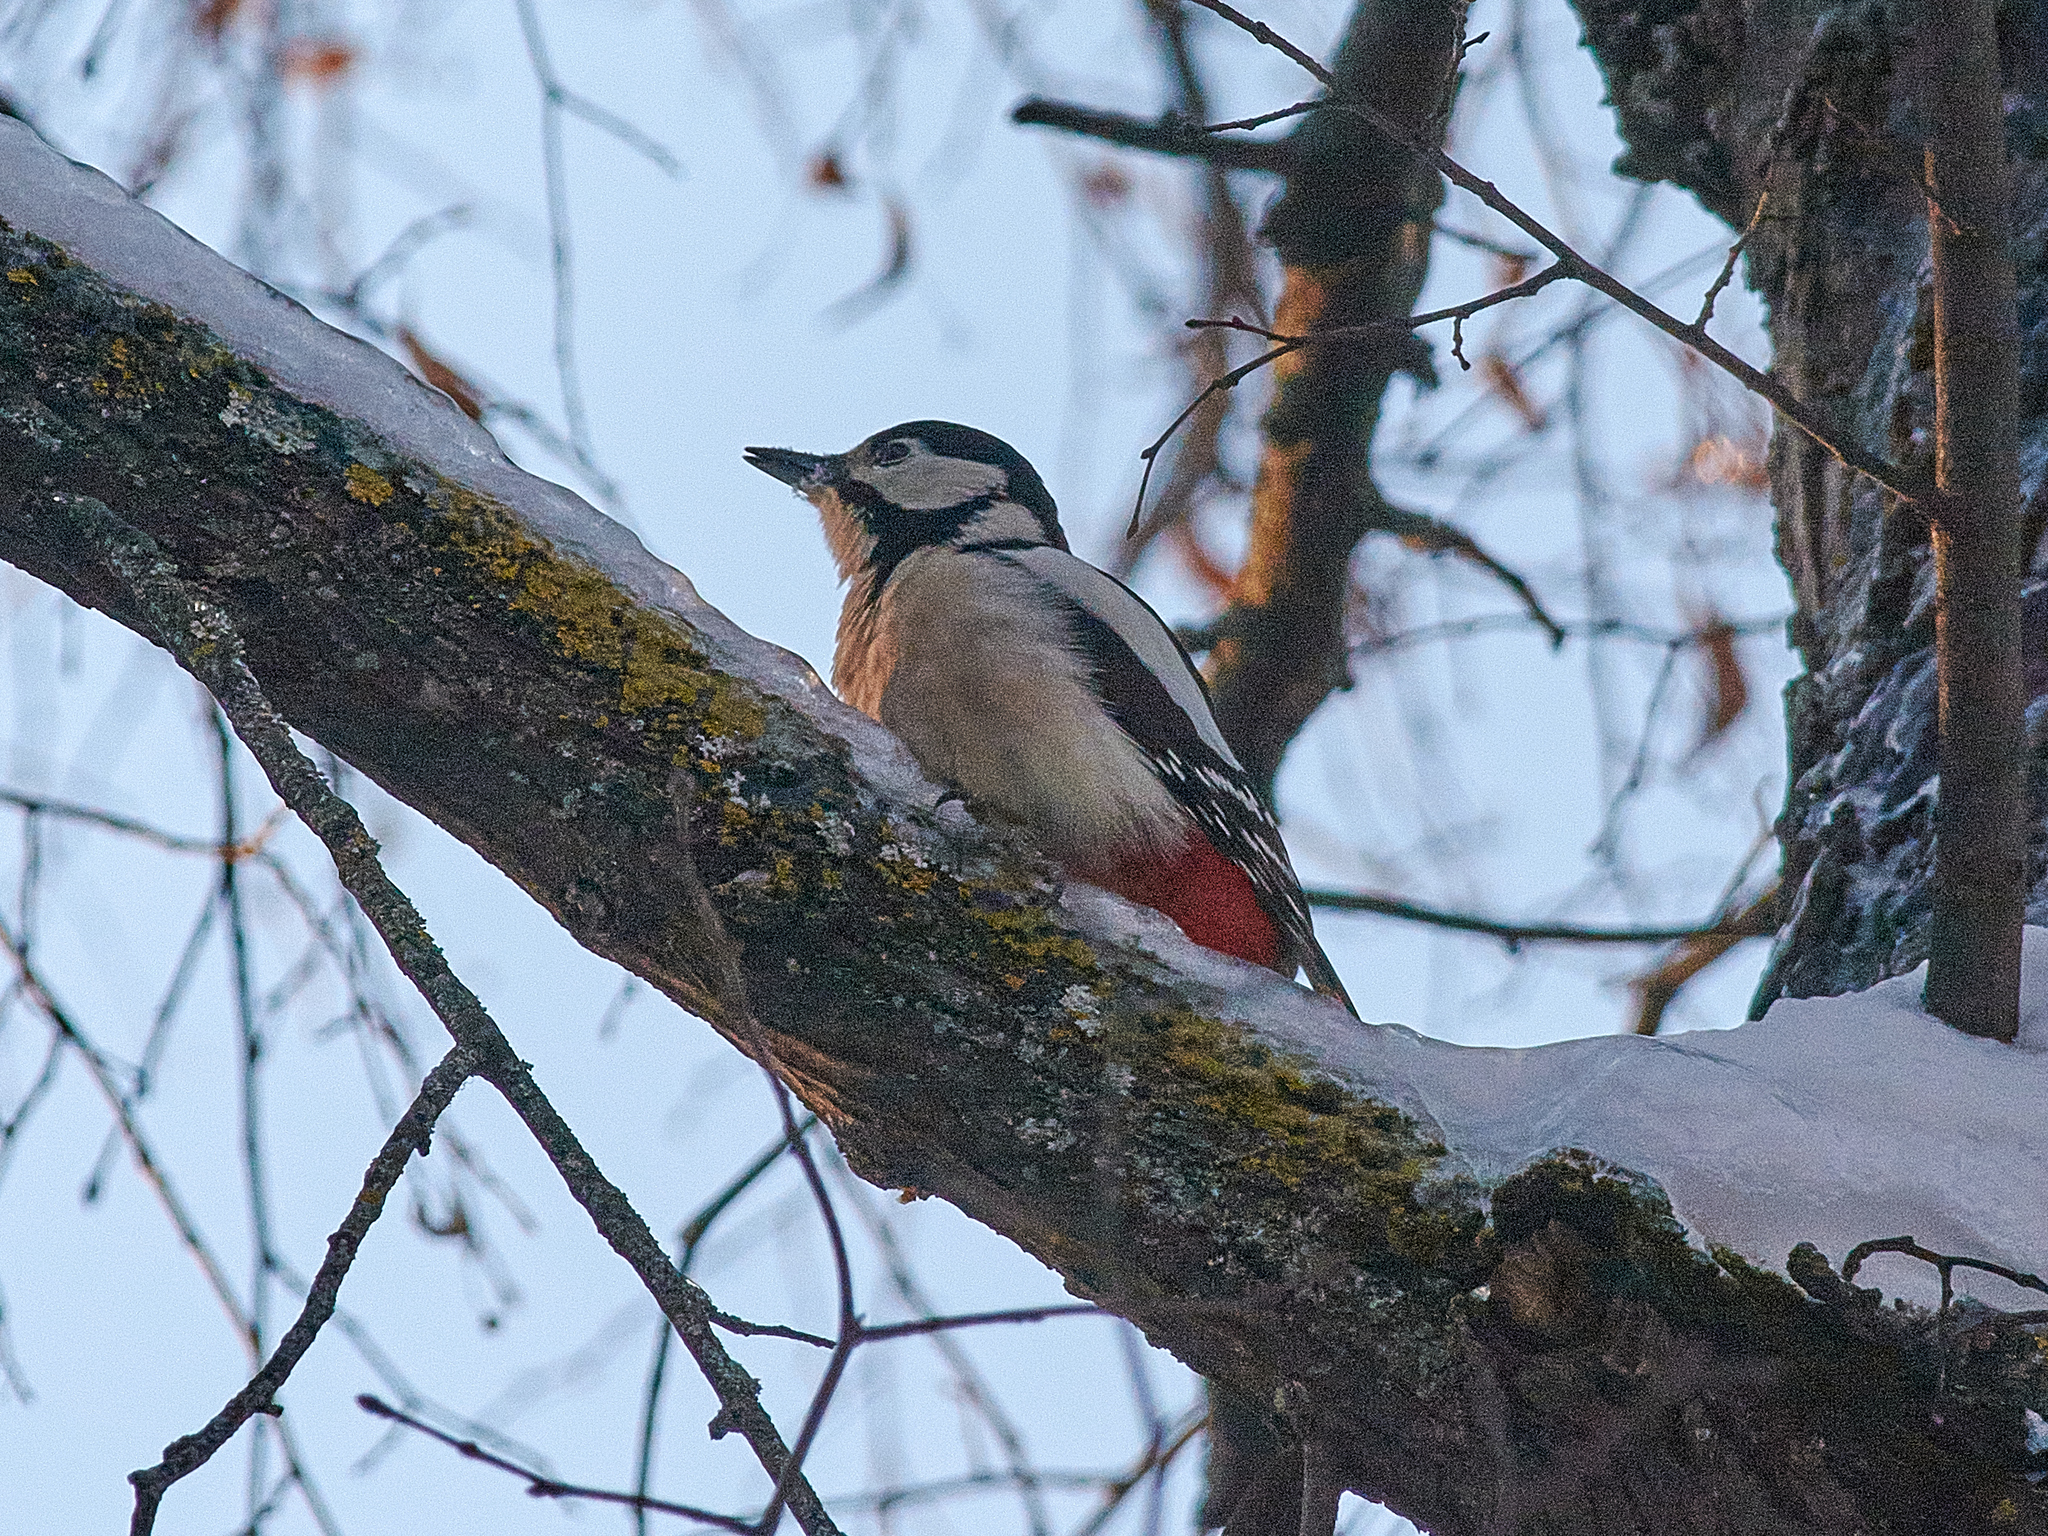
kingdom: Animalia
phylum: Chordata
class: Aves
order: Piciformes
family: Picidae
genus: Dendrocopos
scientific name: Dendrocopos major
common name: Great spotted woodpecker
